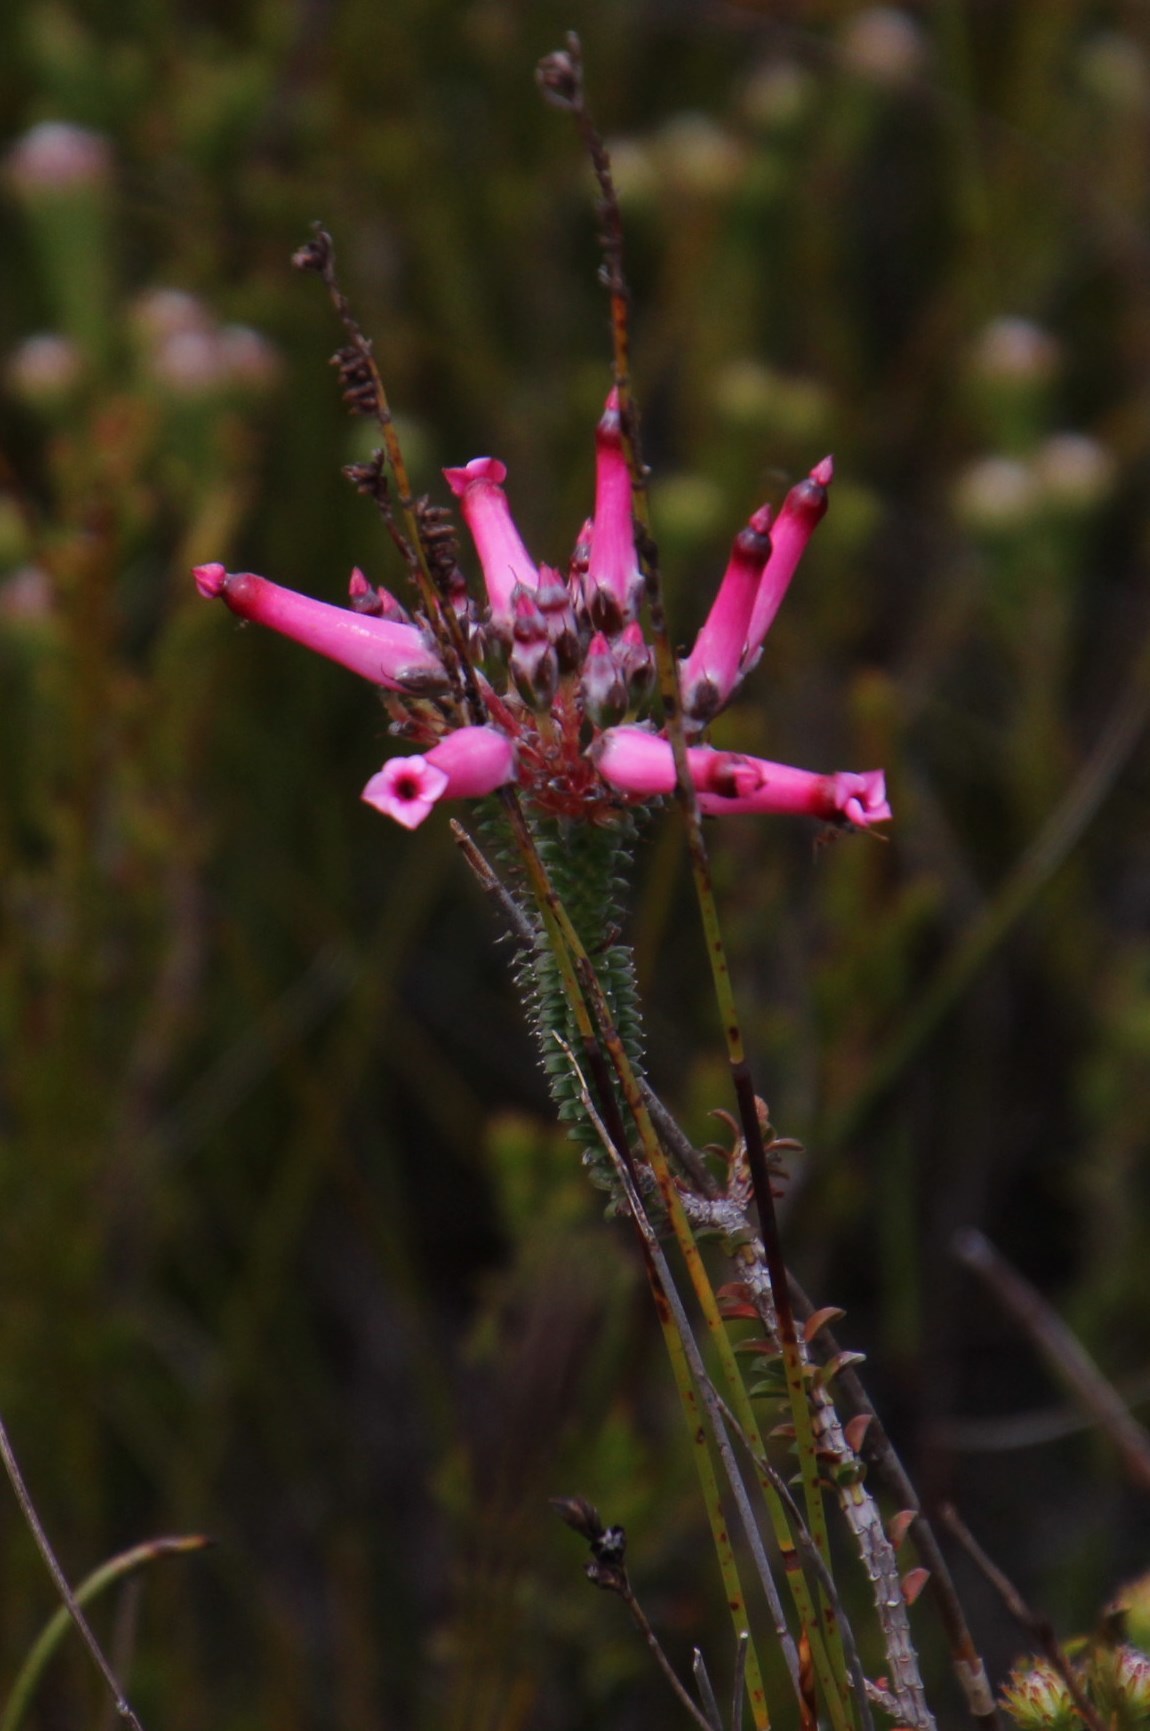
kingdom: Plantae
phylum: Tracheophyta
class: Magnoliopsida
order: Ericales
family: Ericaceae
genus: Erica
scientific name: Erica retorta
